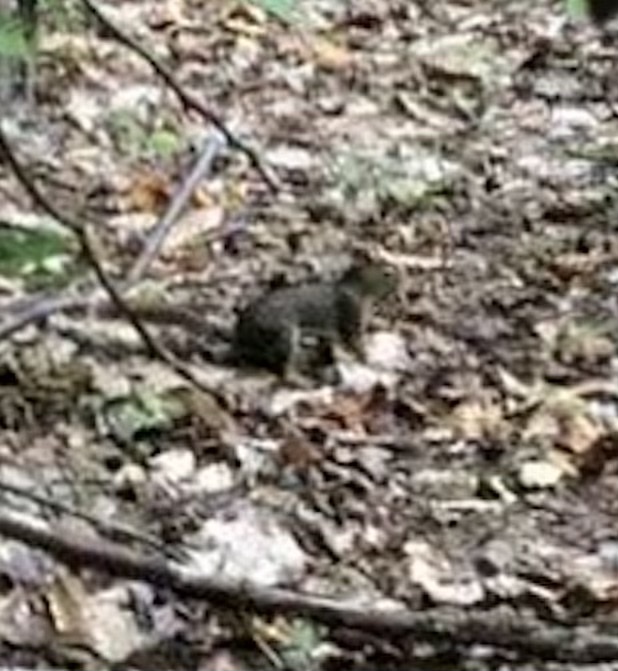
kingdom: Animalia
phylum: Chordata
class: Mammalia
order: Rodentia
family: Sciuridae
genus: Tamiasciurus
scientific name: Tamiasciurus hudsonicus
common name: Red squirrel
